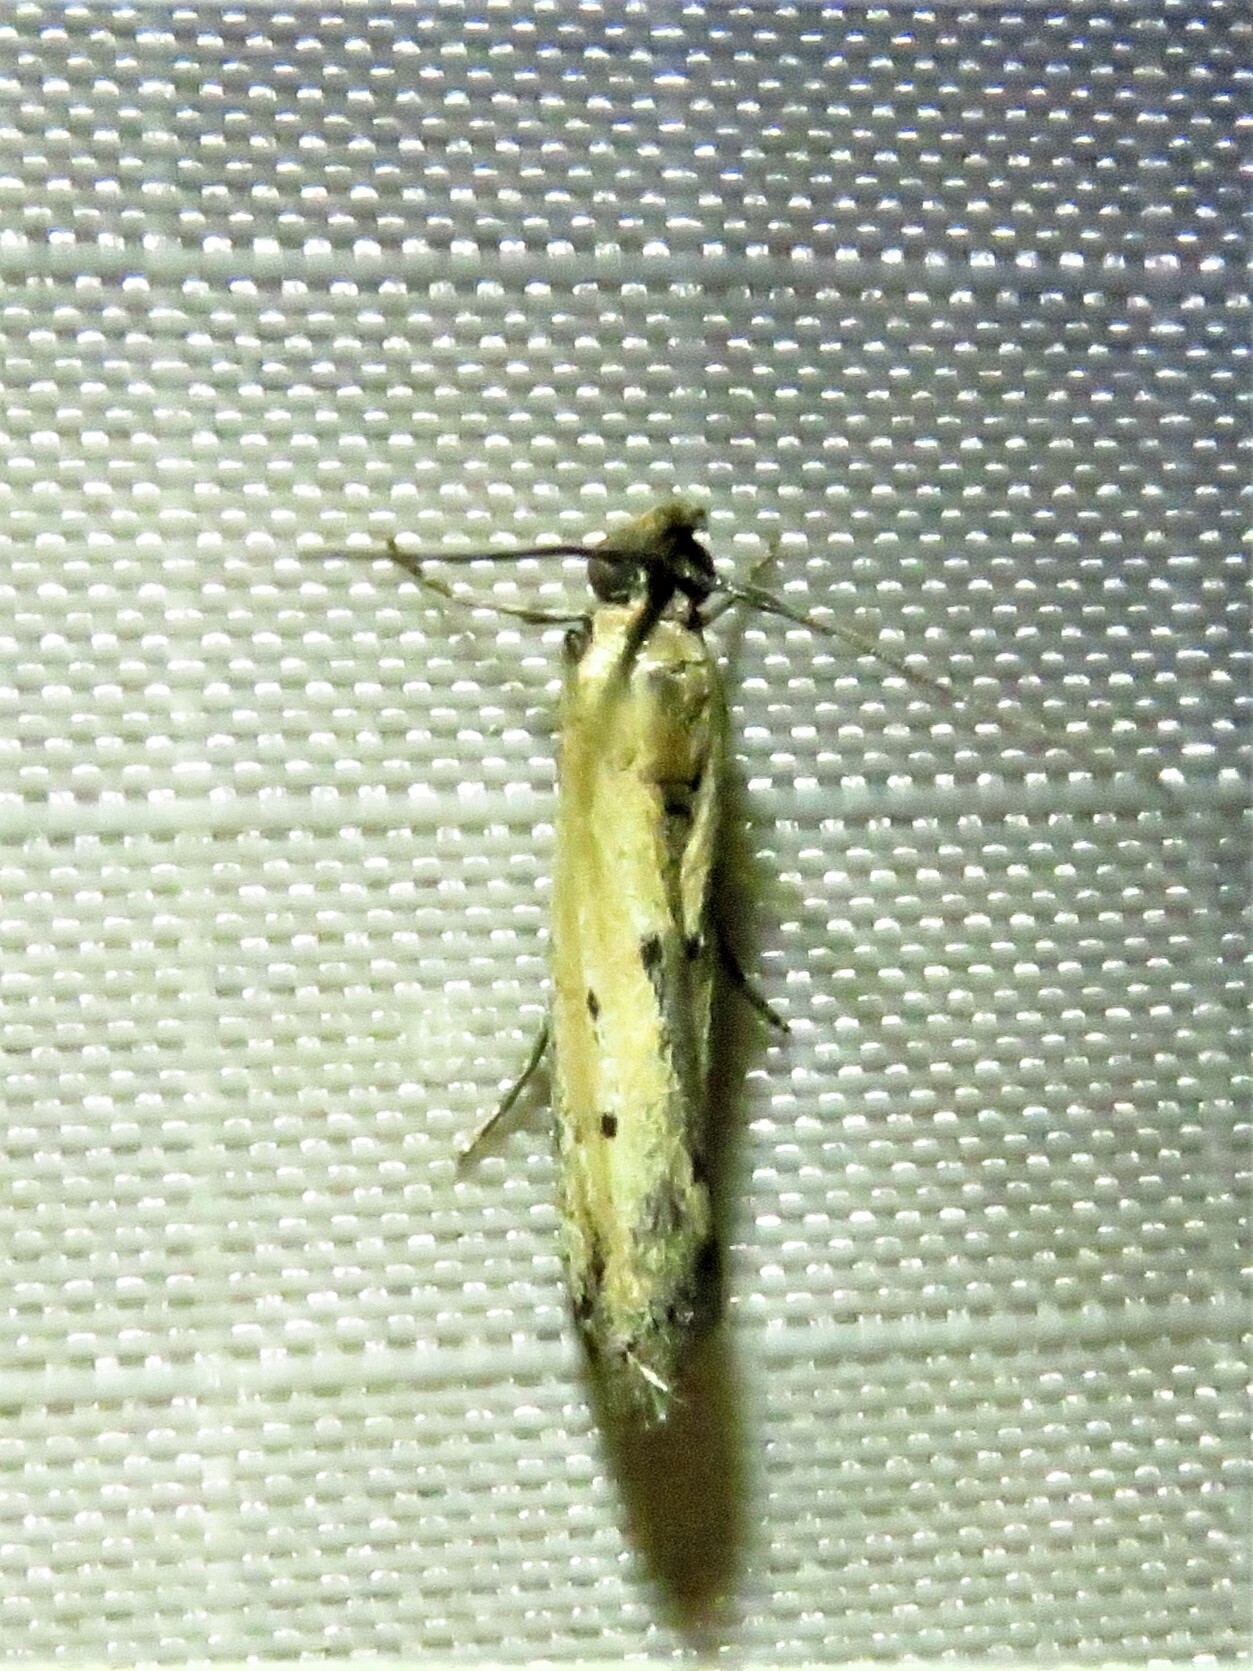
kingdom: Animalia
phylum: Arthropoda
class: Insecta
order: Lepidoptera
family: Pyralidae
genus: Elasmopalpus
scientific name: Elasmopalpus lignosella
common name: Lesser cornstalk borer
